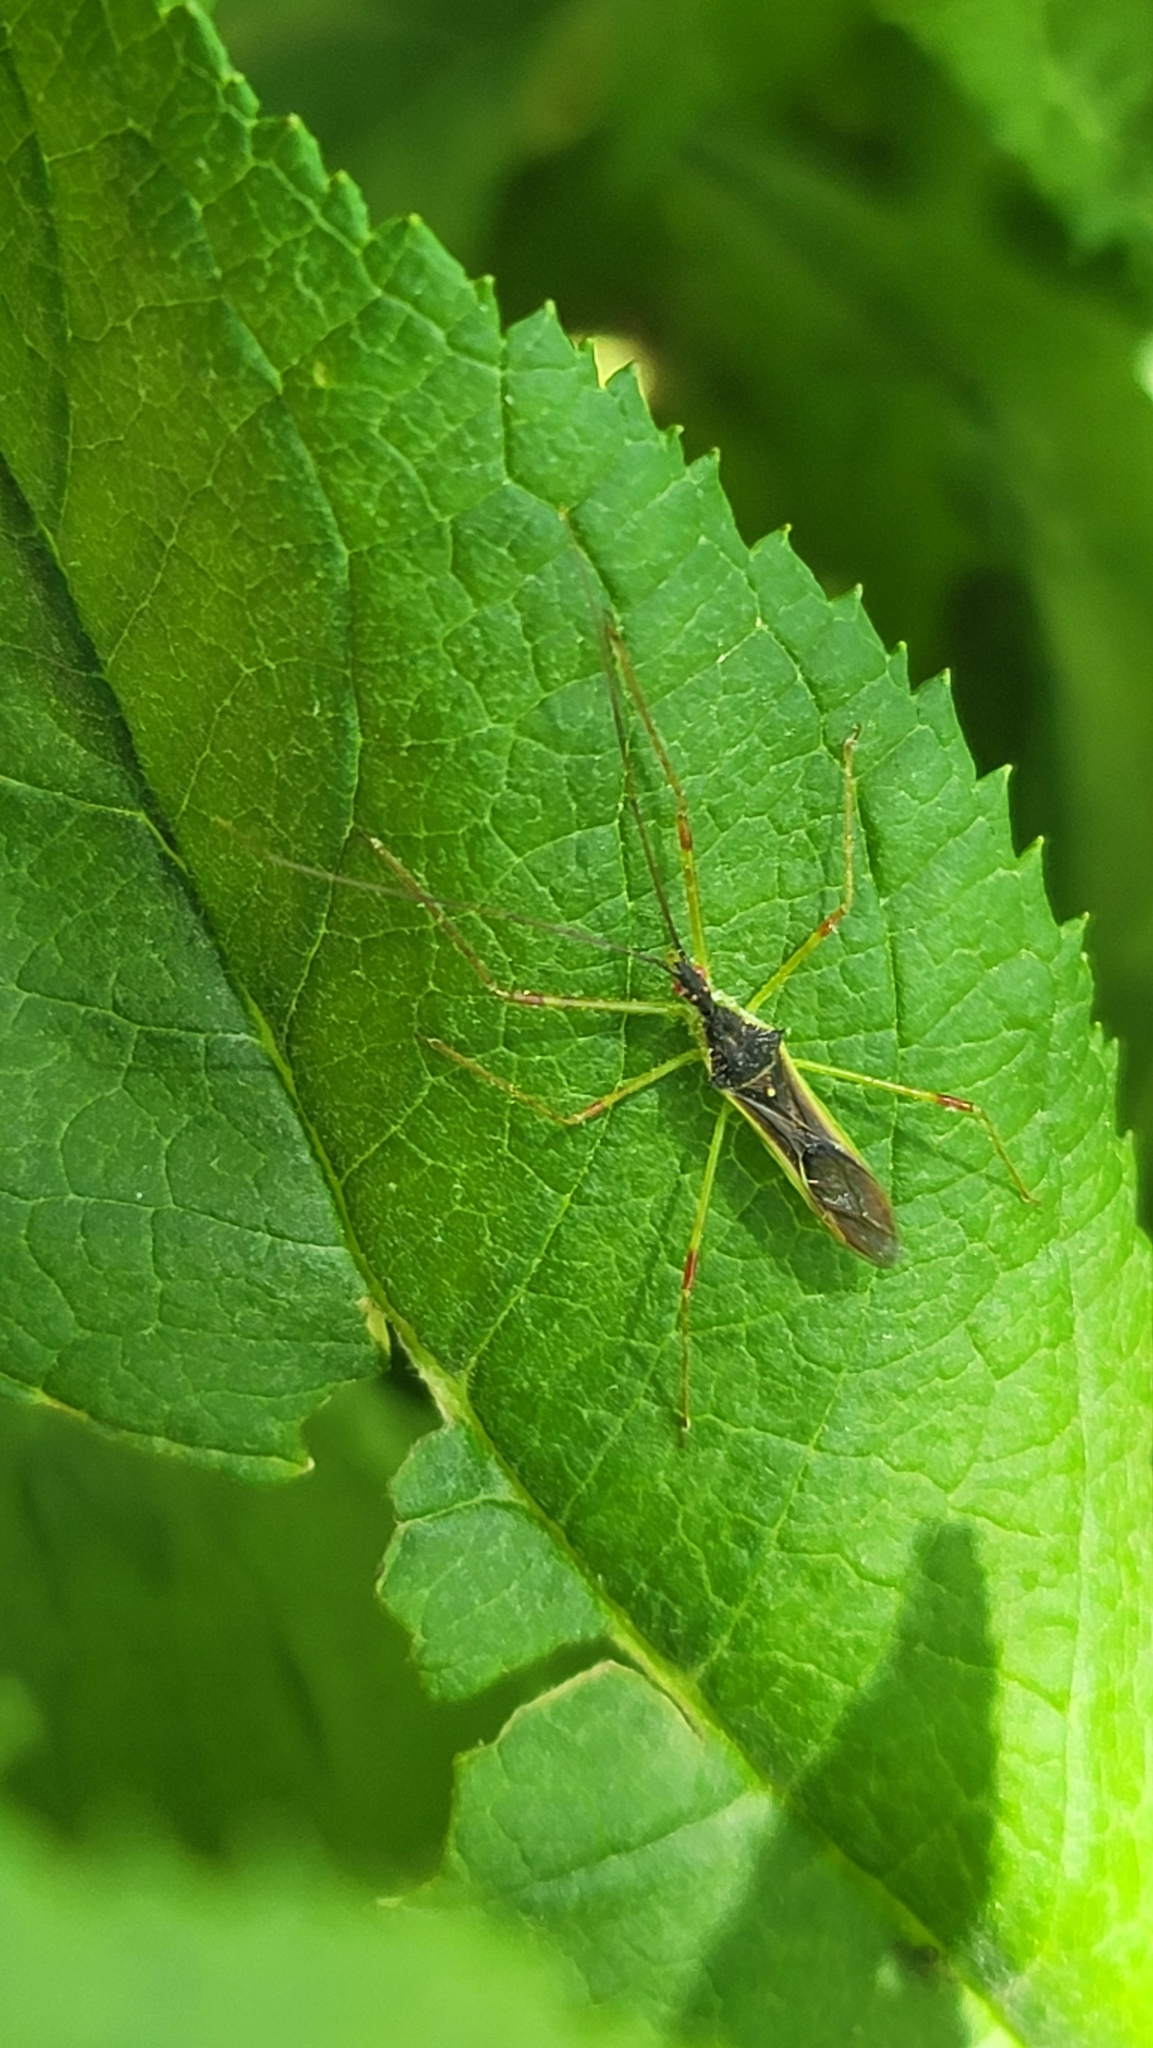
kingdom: Animalia
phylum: Arthropoda
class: Insecta
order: Hemiptera
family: Reduviidae
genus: Zelus
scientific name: Zelus luridus
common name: Pale green assassin bug
